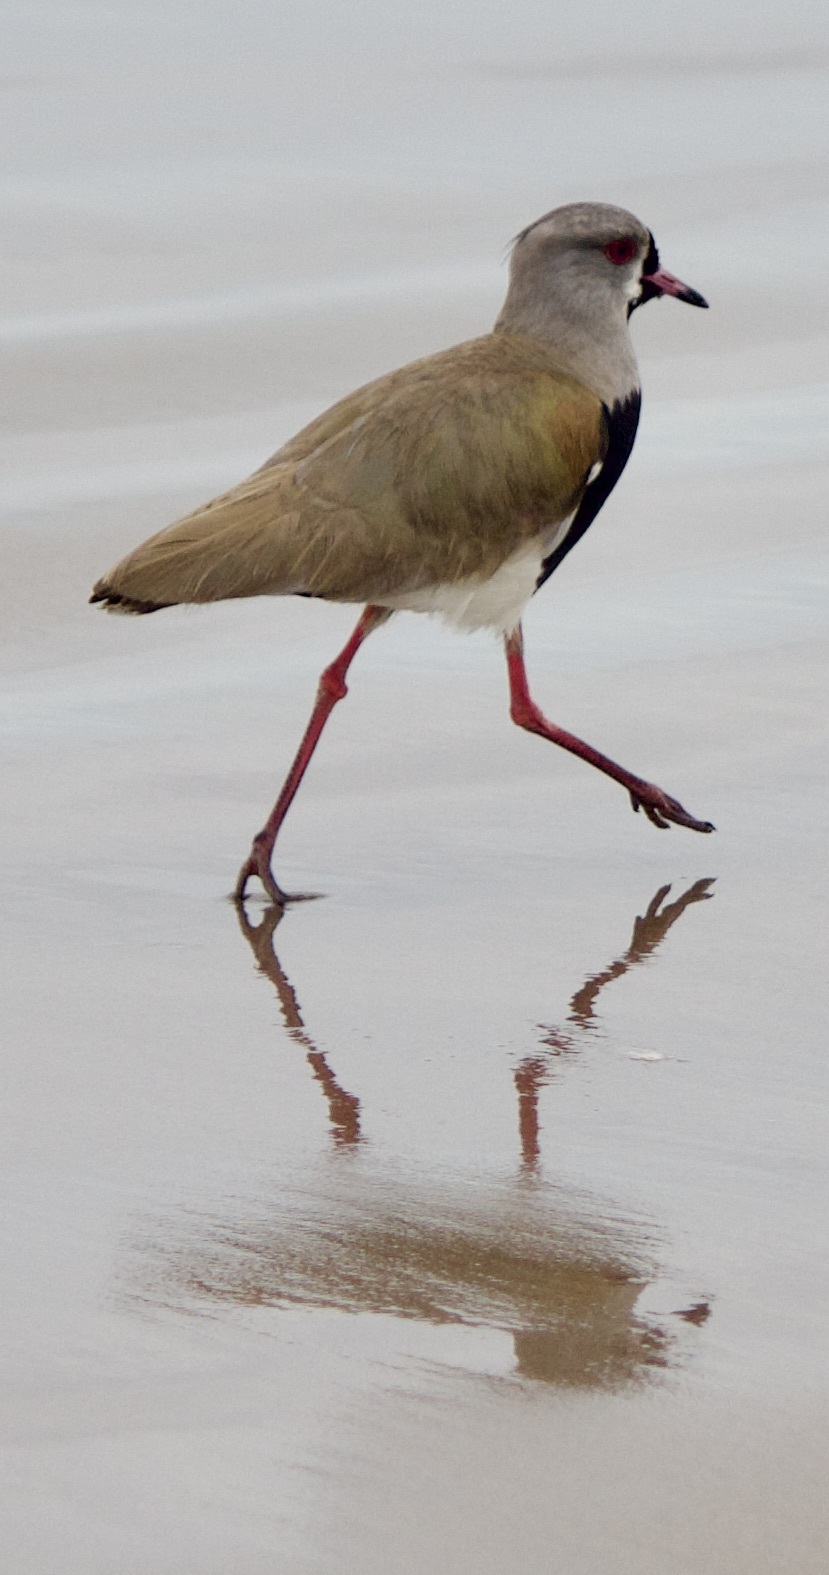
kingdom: Animalia
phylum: Chordata
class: Aves
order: Charadriiformes
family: Charadriidae
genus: Vanellus
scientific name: Vanellus chilensis
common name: Southern lapwing
